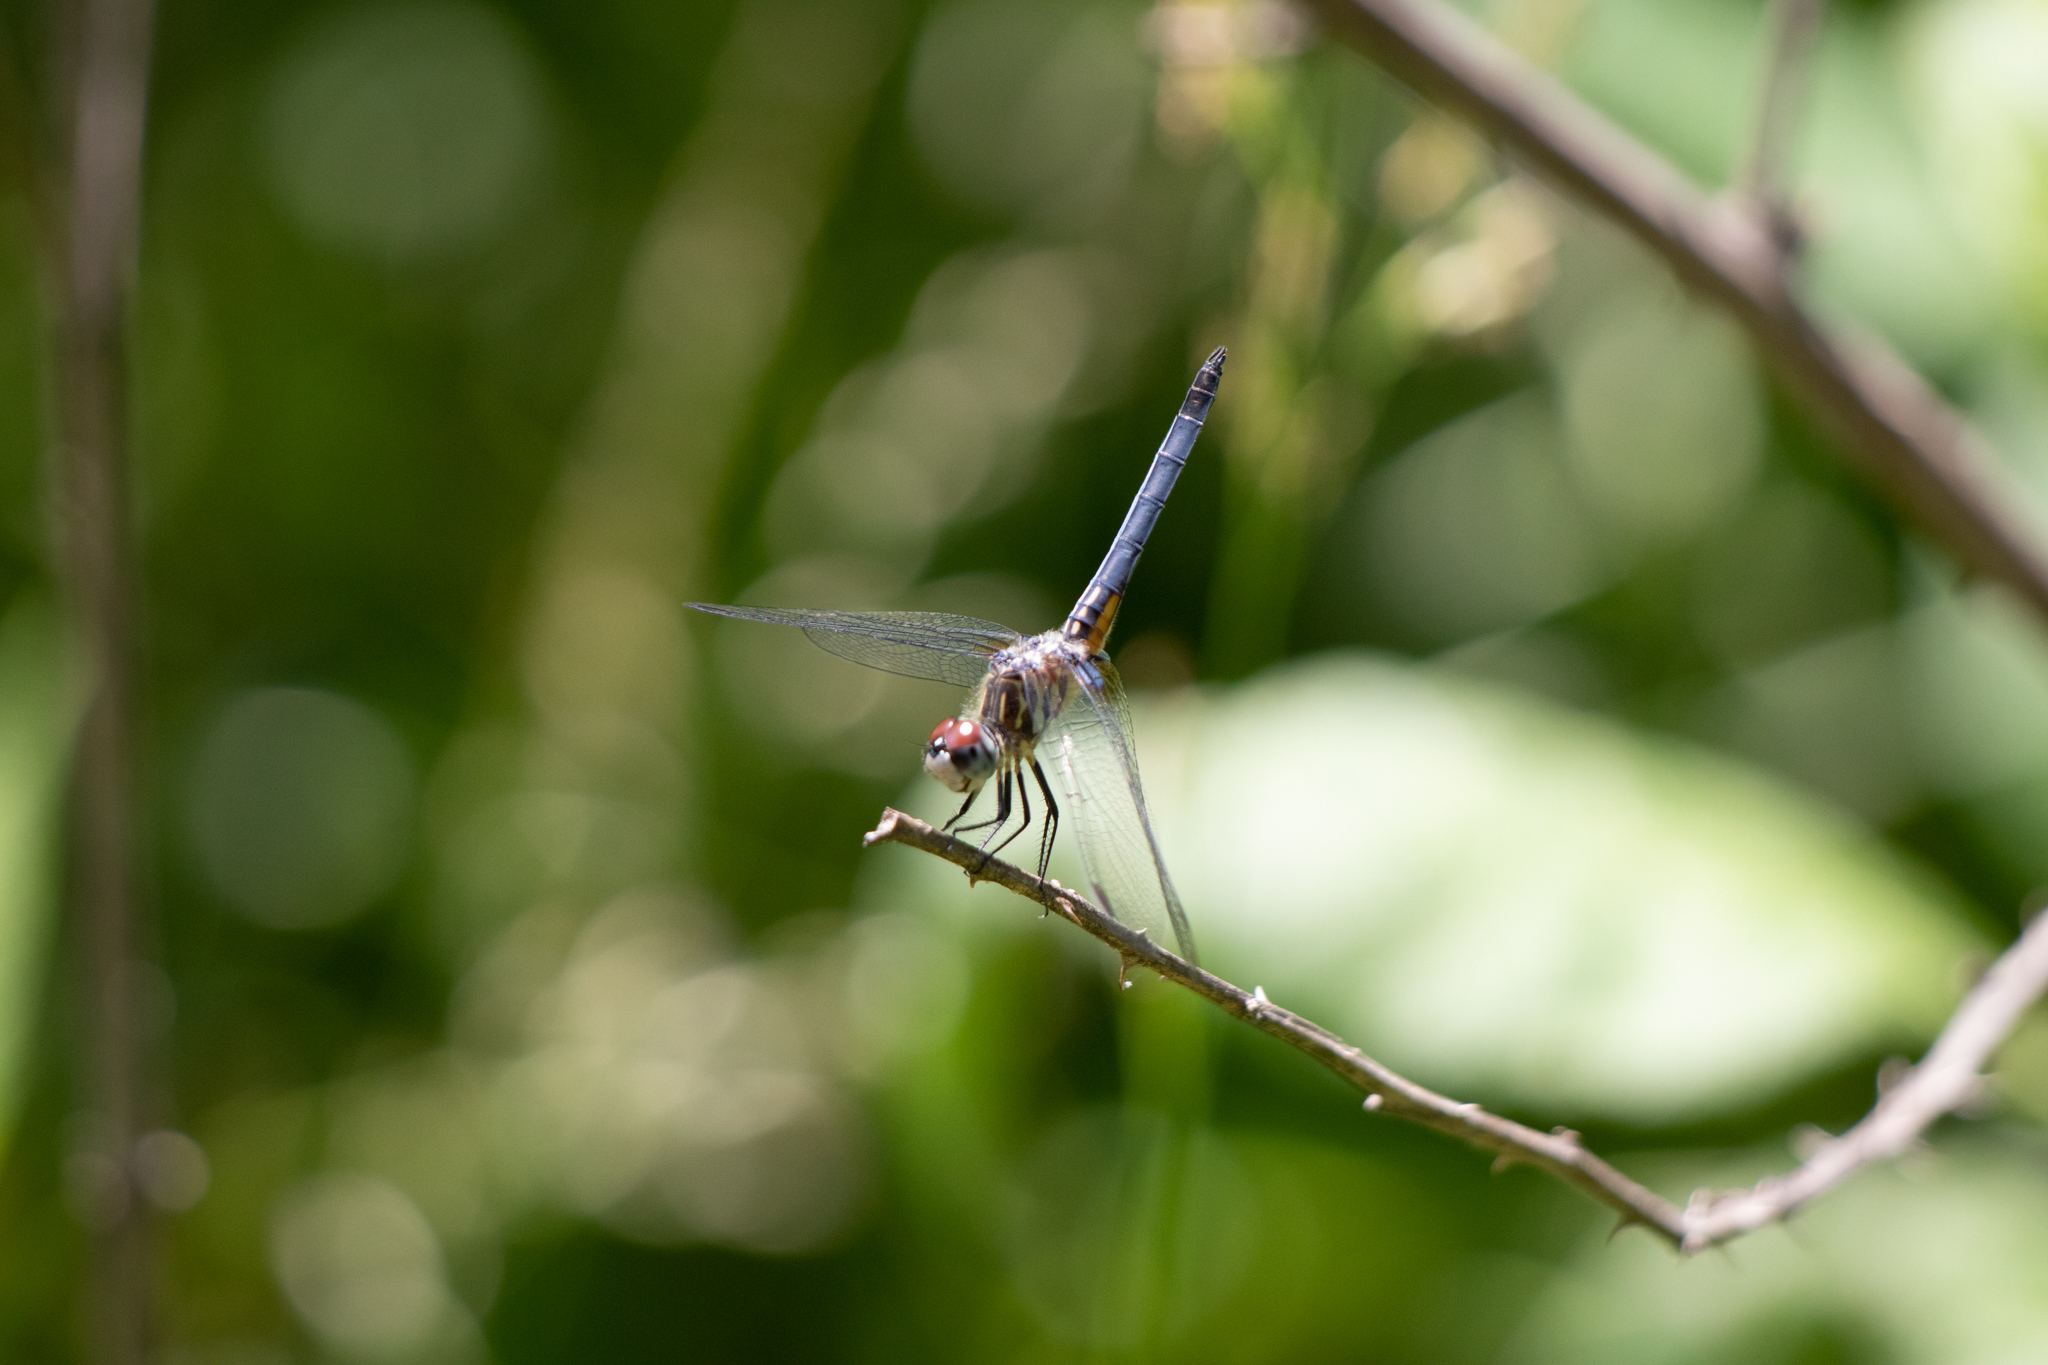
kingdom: Animalia
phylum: Arthropoda
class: Insecta
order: Odonata
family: Libellulidae
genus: Pachydiplax
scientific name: Pachydiplax longipennis
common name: Blue dasher
